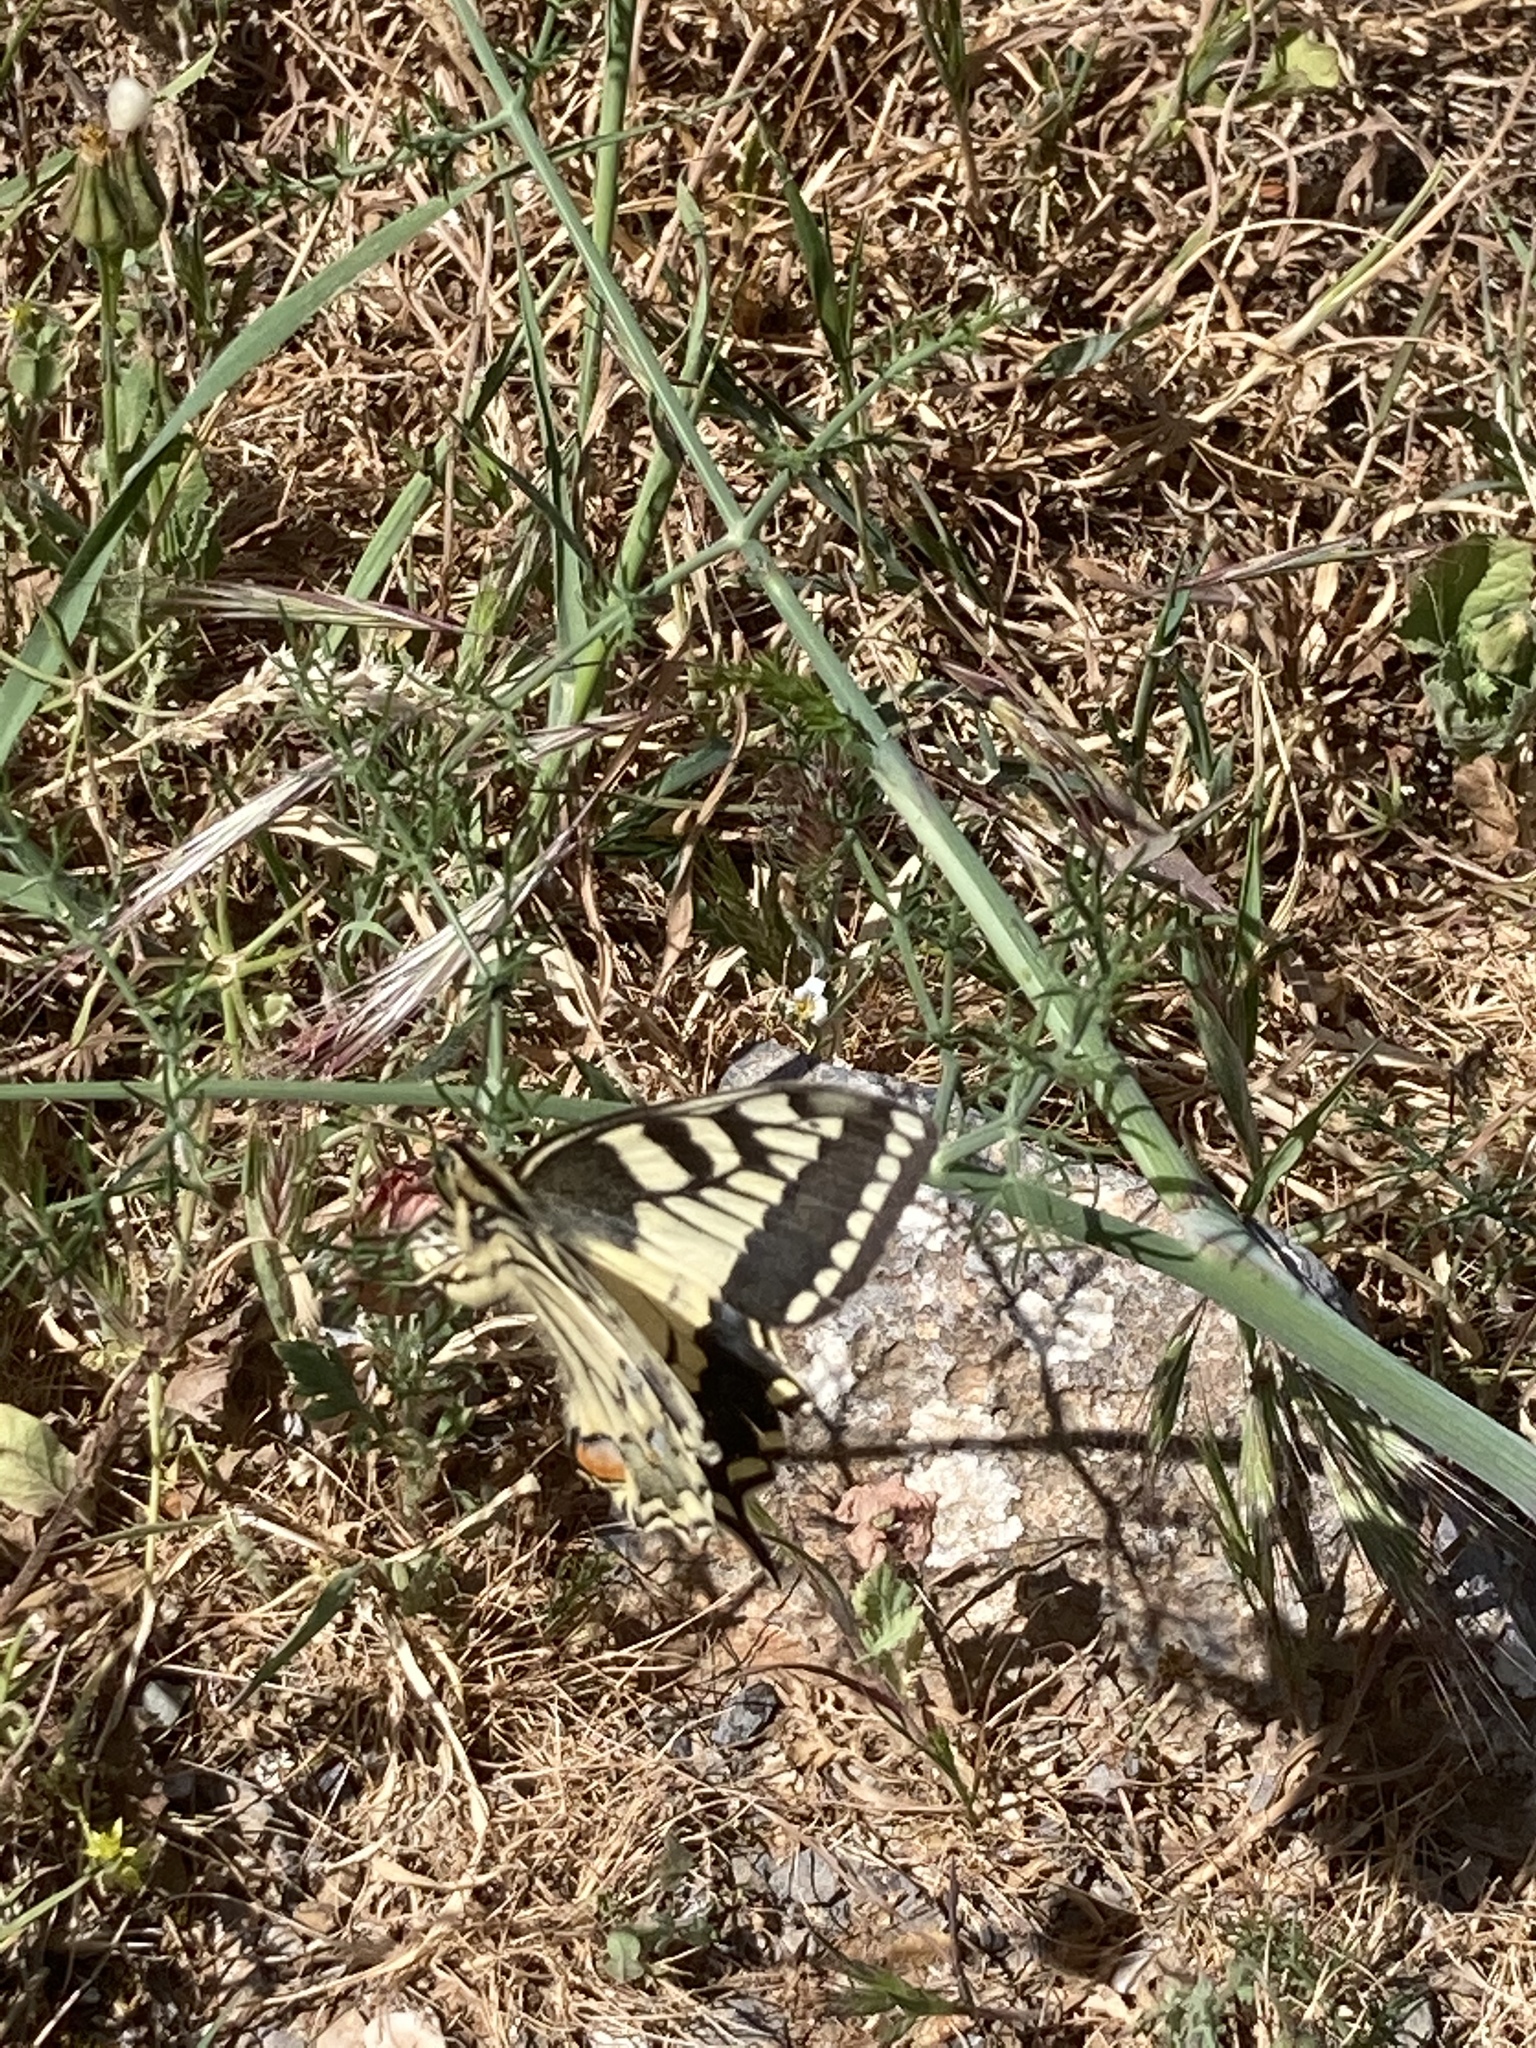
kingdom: Animalia
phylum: Arthropoda
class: Insecta
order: Lepidoptera
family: Papilionidae
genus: Papilio
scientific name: Papilio machaon
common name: Swallowtail
